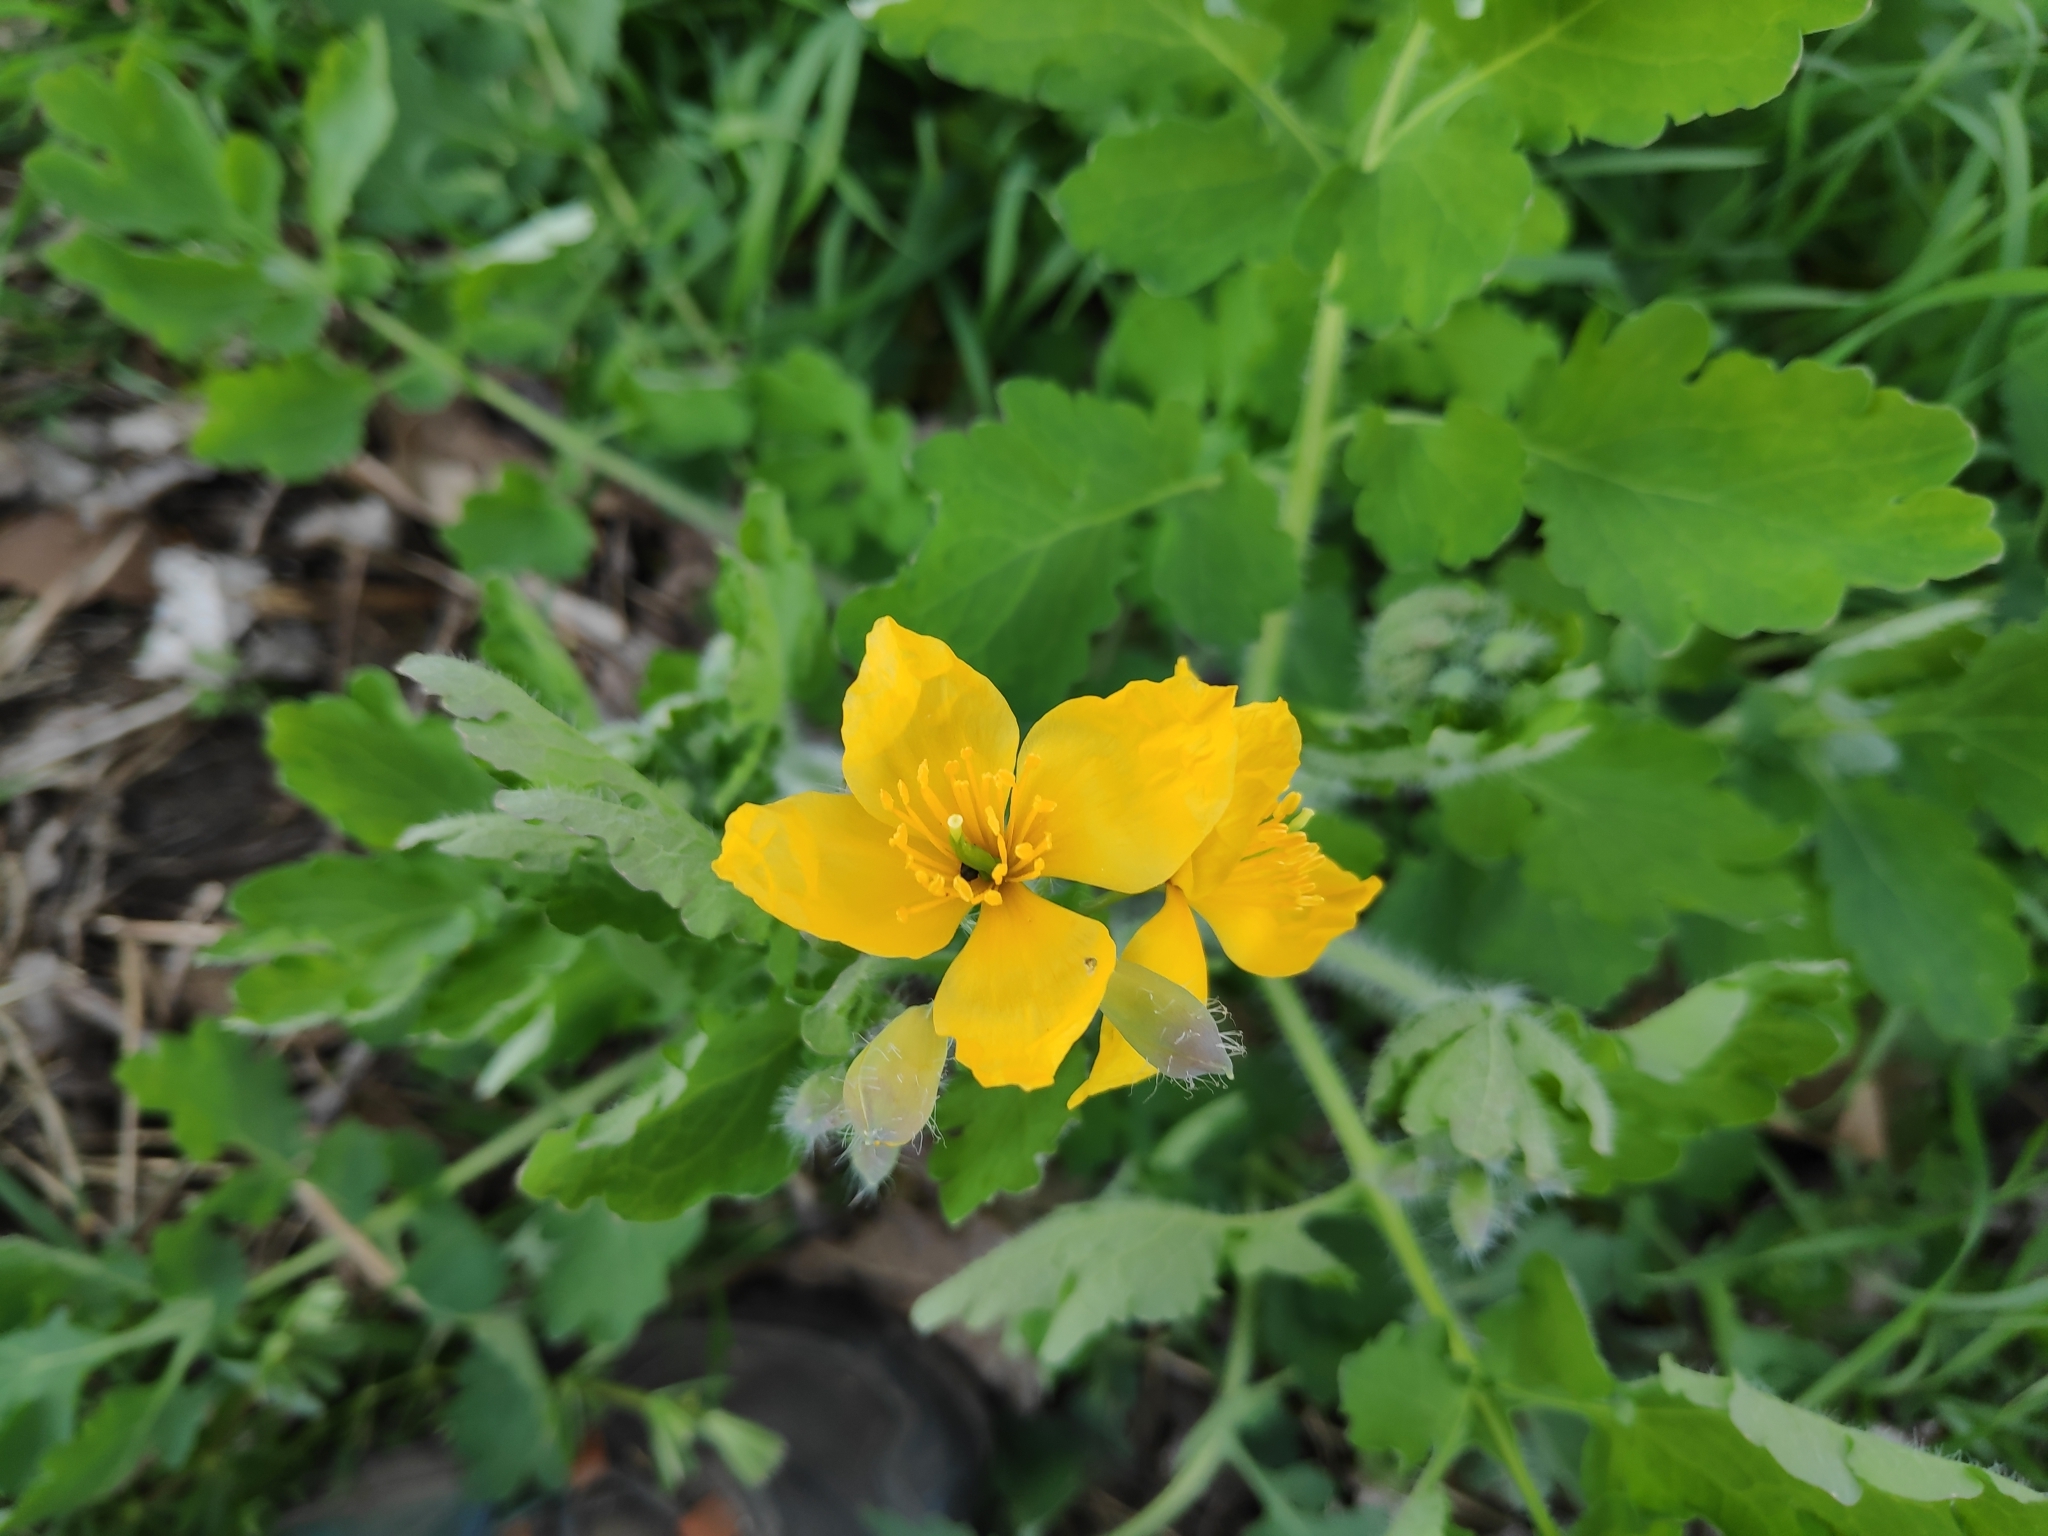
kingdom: Plantae
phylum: Tracheophyta
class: Magnoliopsida
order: Ranunculales
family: Papaveraceae
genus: Chelidonium
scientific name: Chelidonium majus
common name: Greater celandine
